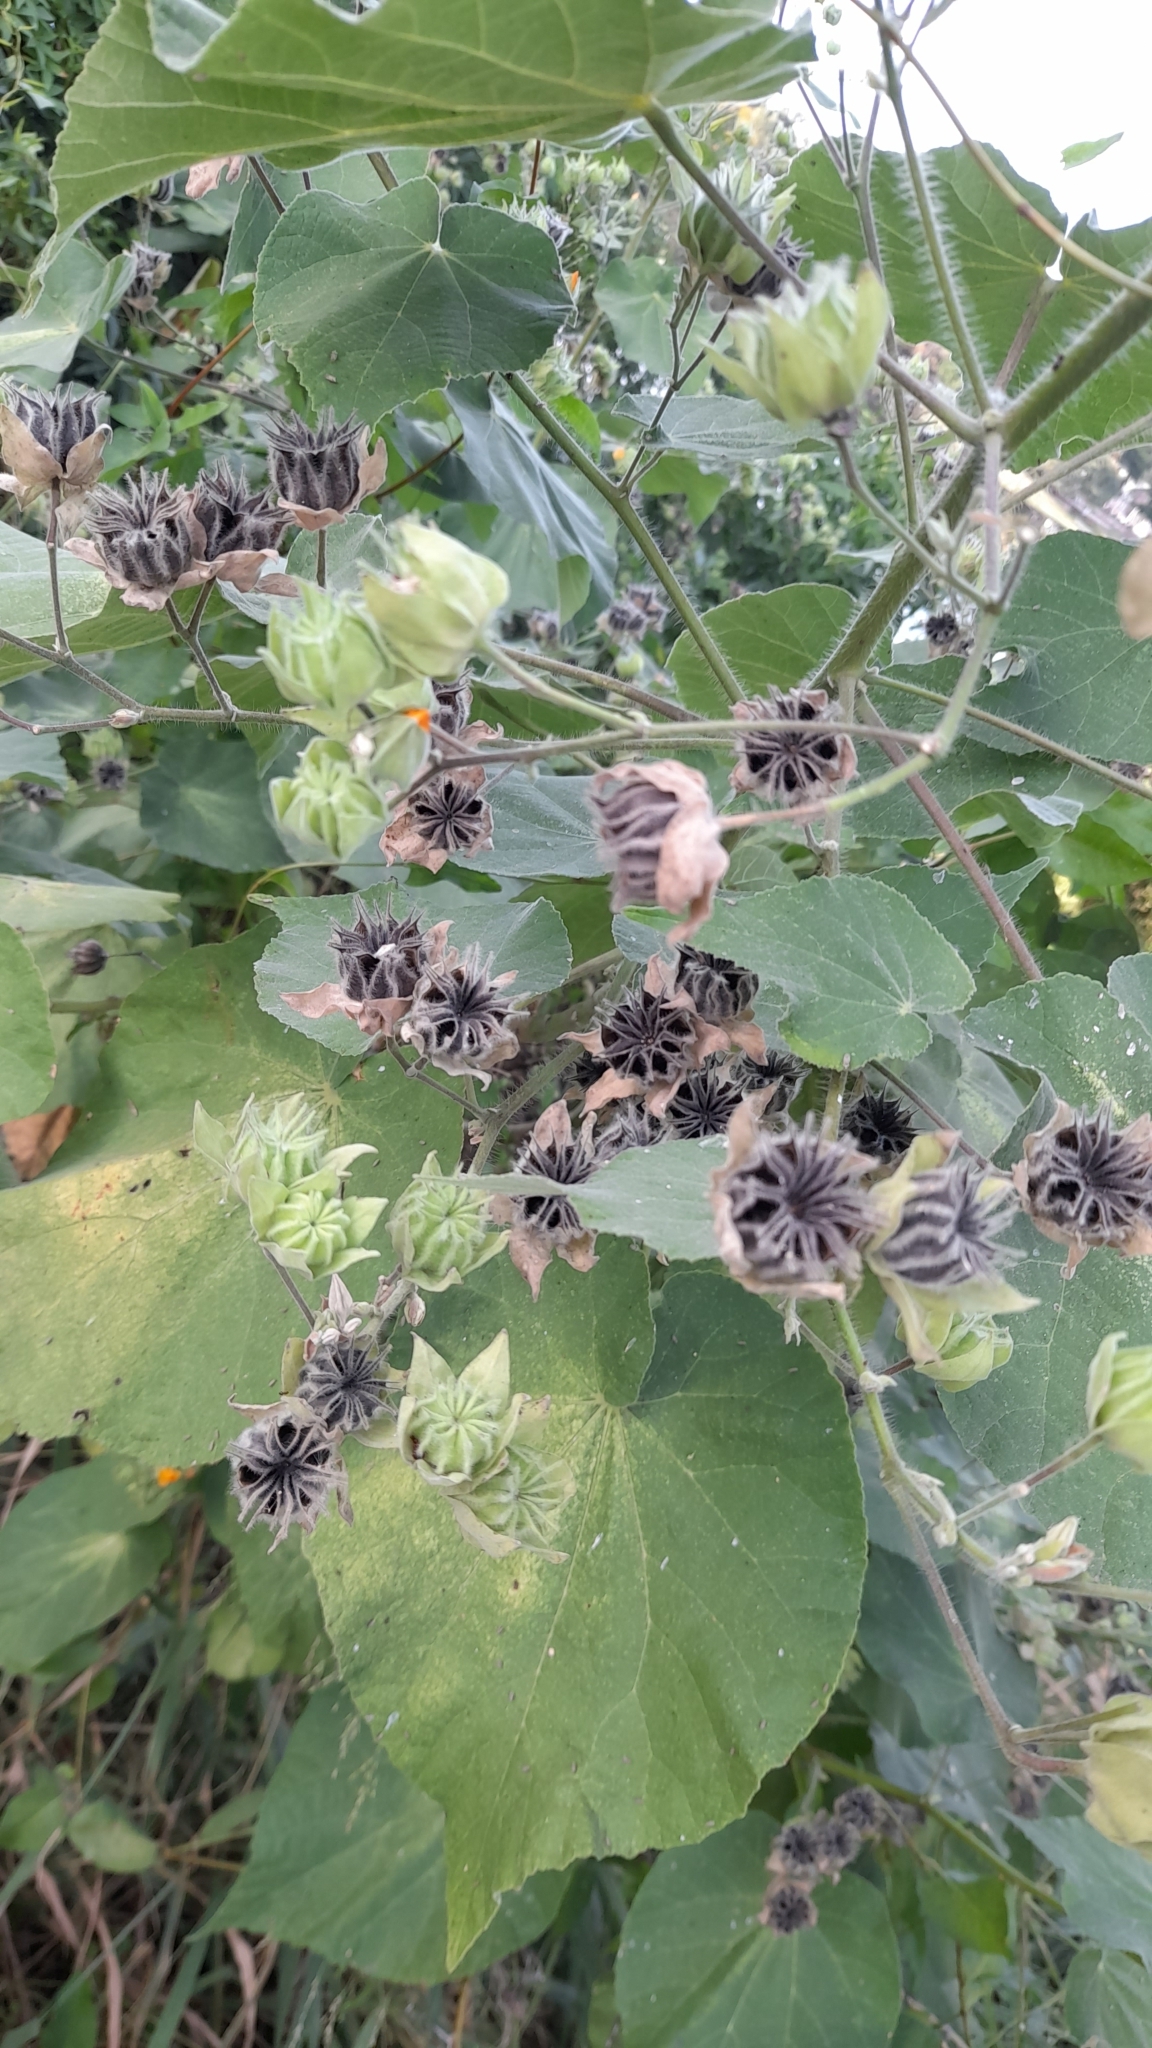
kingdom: Plantae
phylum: Tracheophyta
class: Magnoliopsida
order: Malvales
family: Malvaceae
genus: Abutilon
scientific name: Abutilon grandifolium
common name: Hairy abutilon
